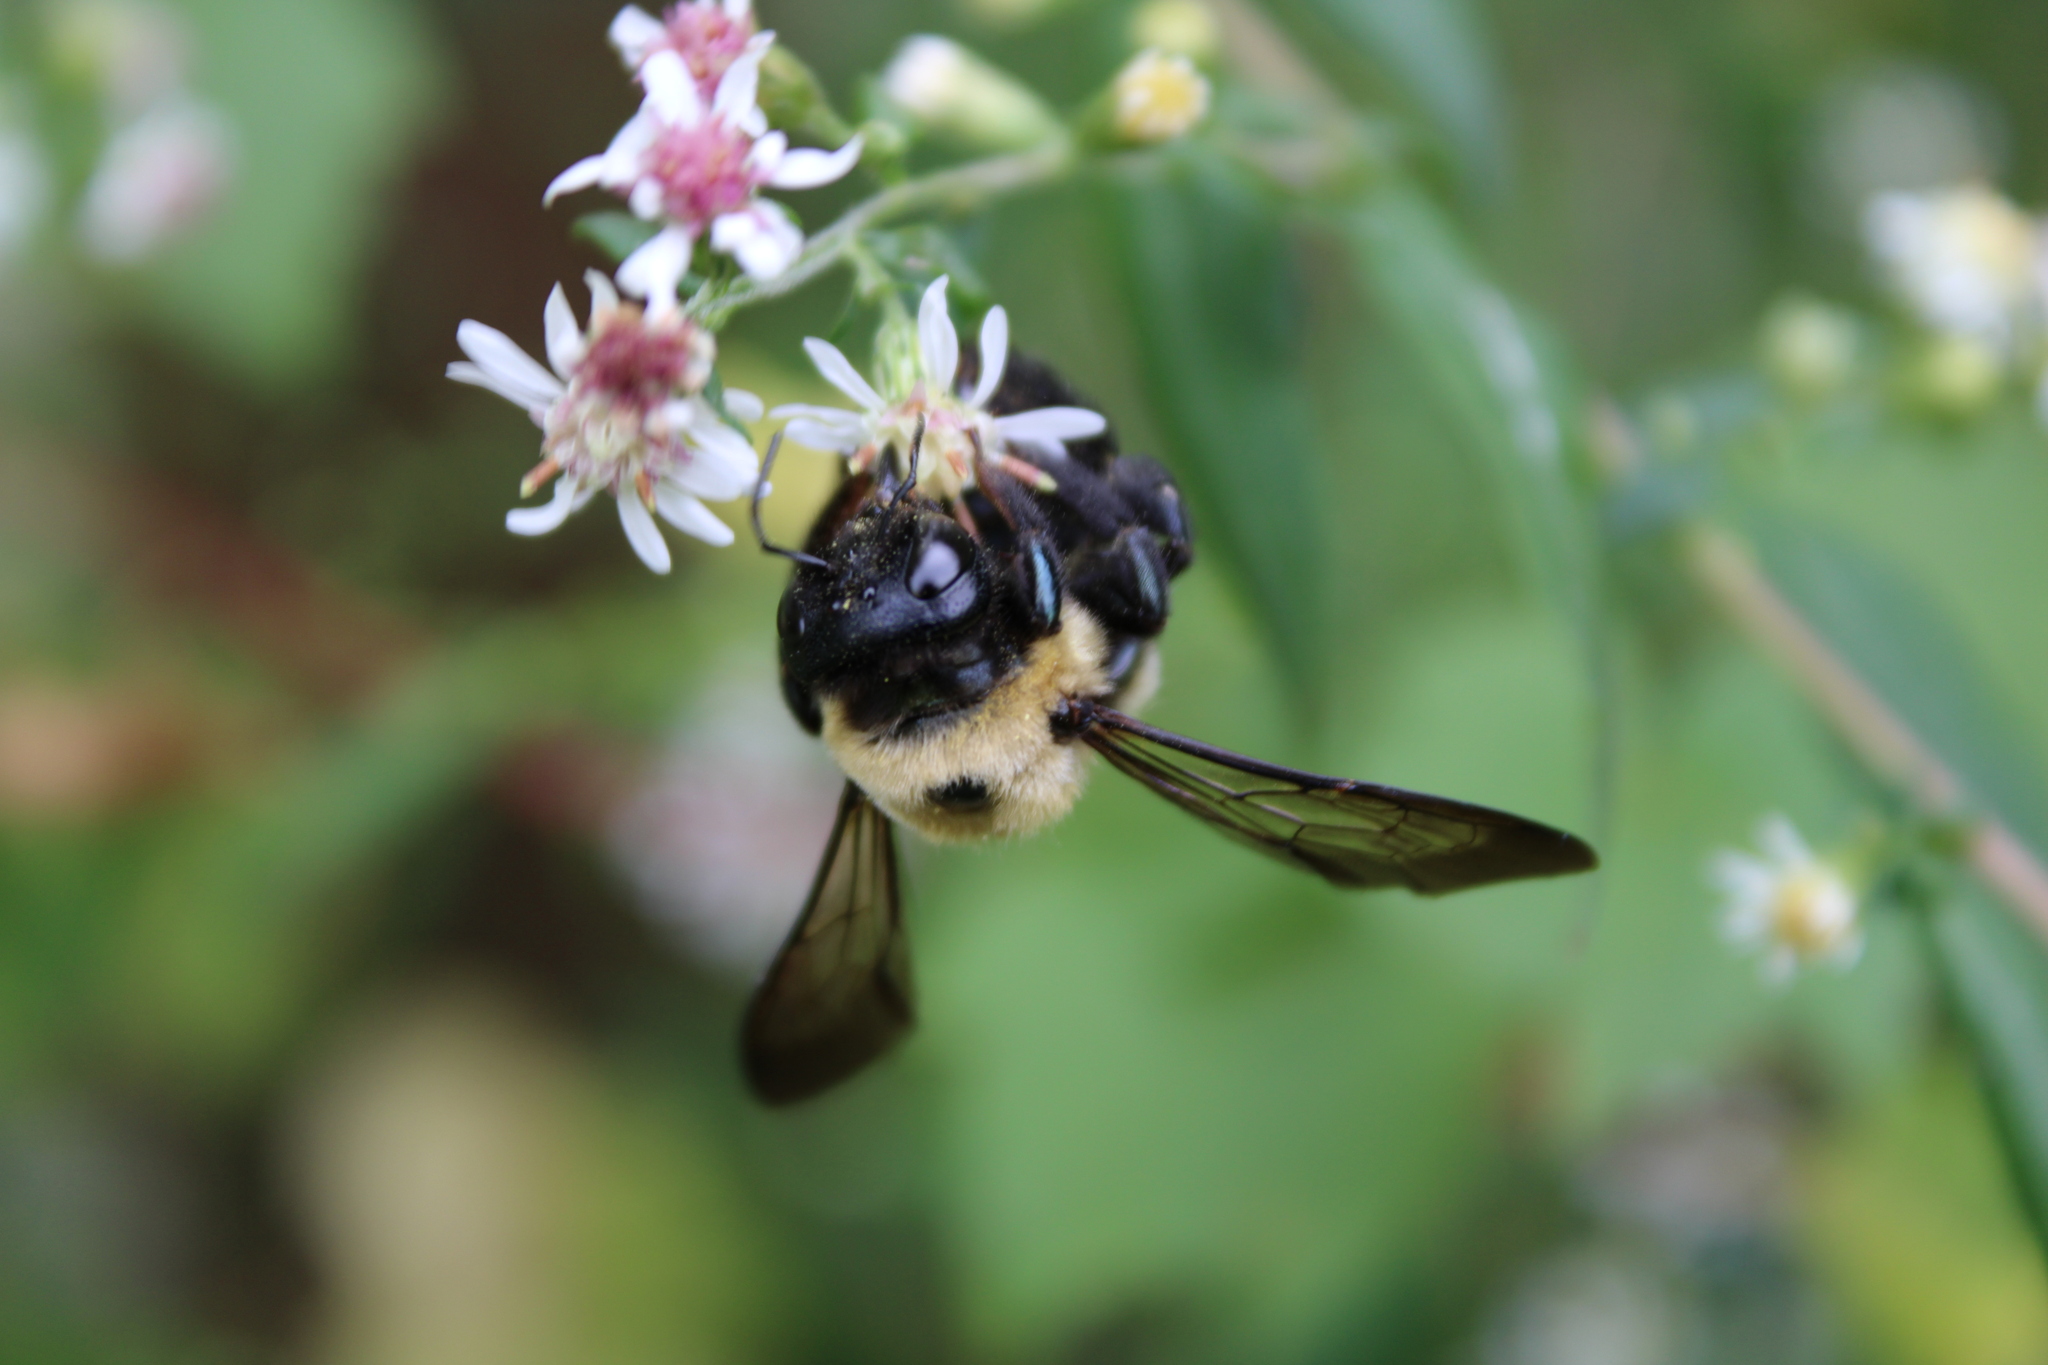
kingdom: Animalia
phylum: Arthropoda
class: Insecta
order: Hymenoptera
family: Apidae
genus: Xylocopa
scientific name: Xylocopa virginica
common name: Carpenter bee
